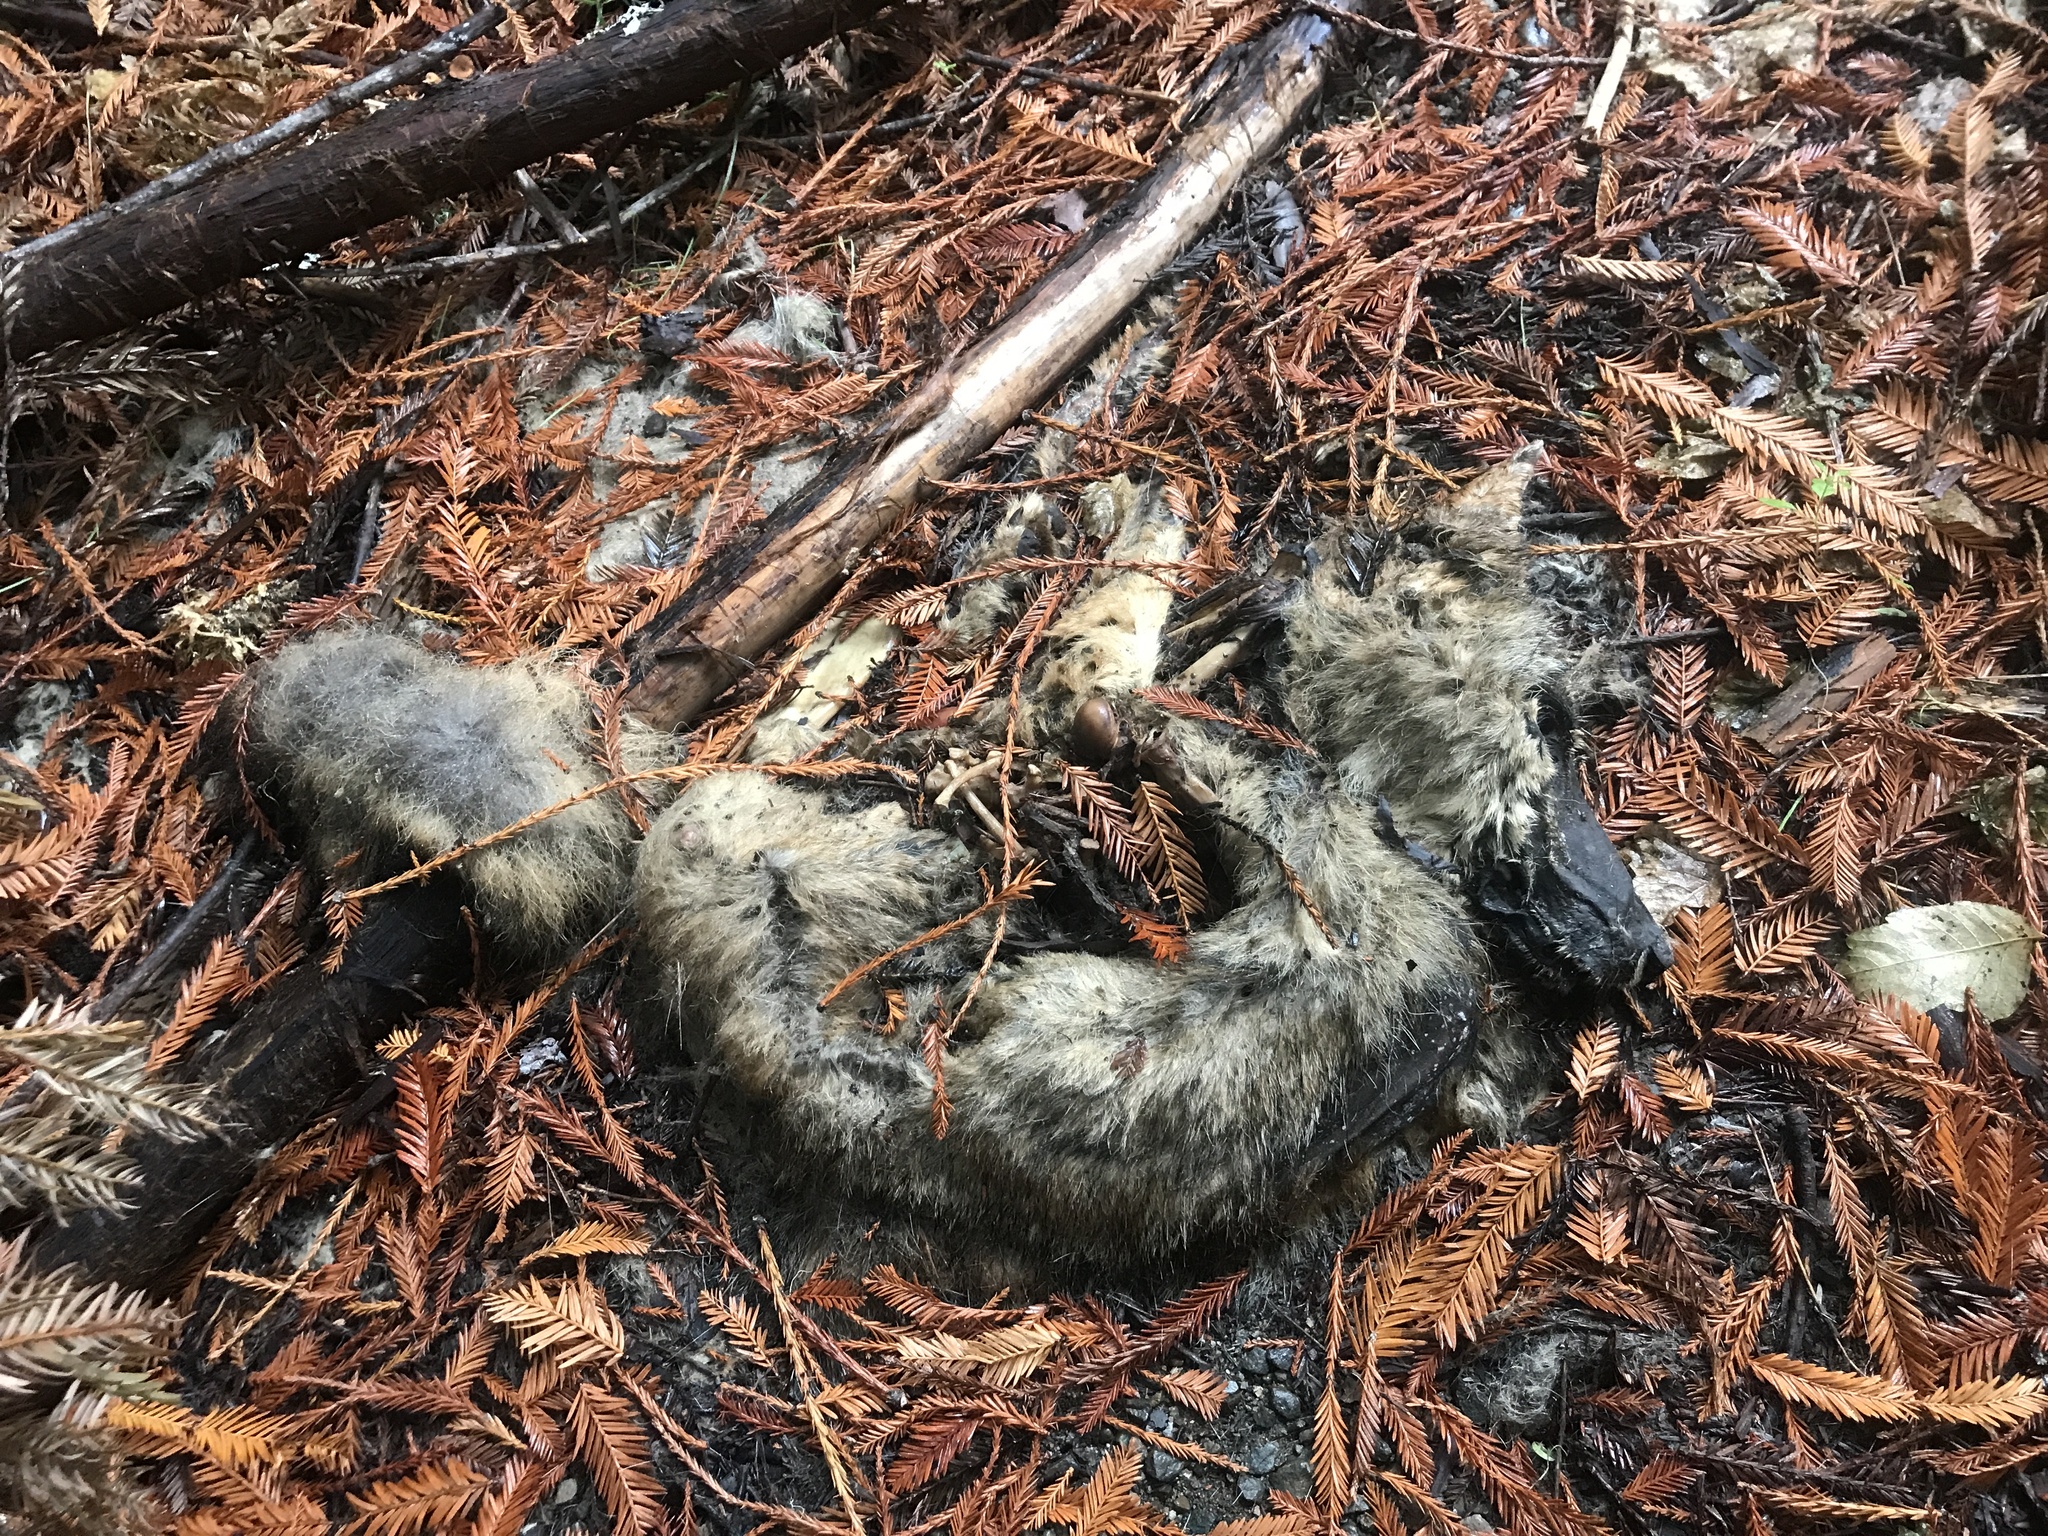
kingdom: Animalia
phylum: Chordata
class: Mammalia
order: Carnivora
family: Canidae
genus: Canis
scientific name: Canis latrans
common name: Coyote
